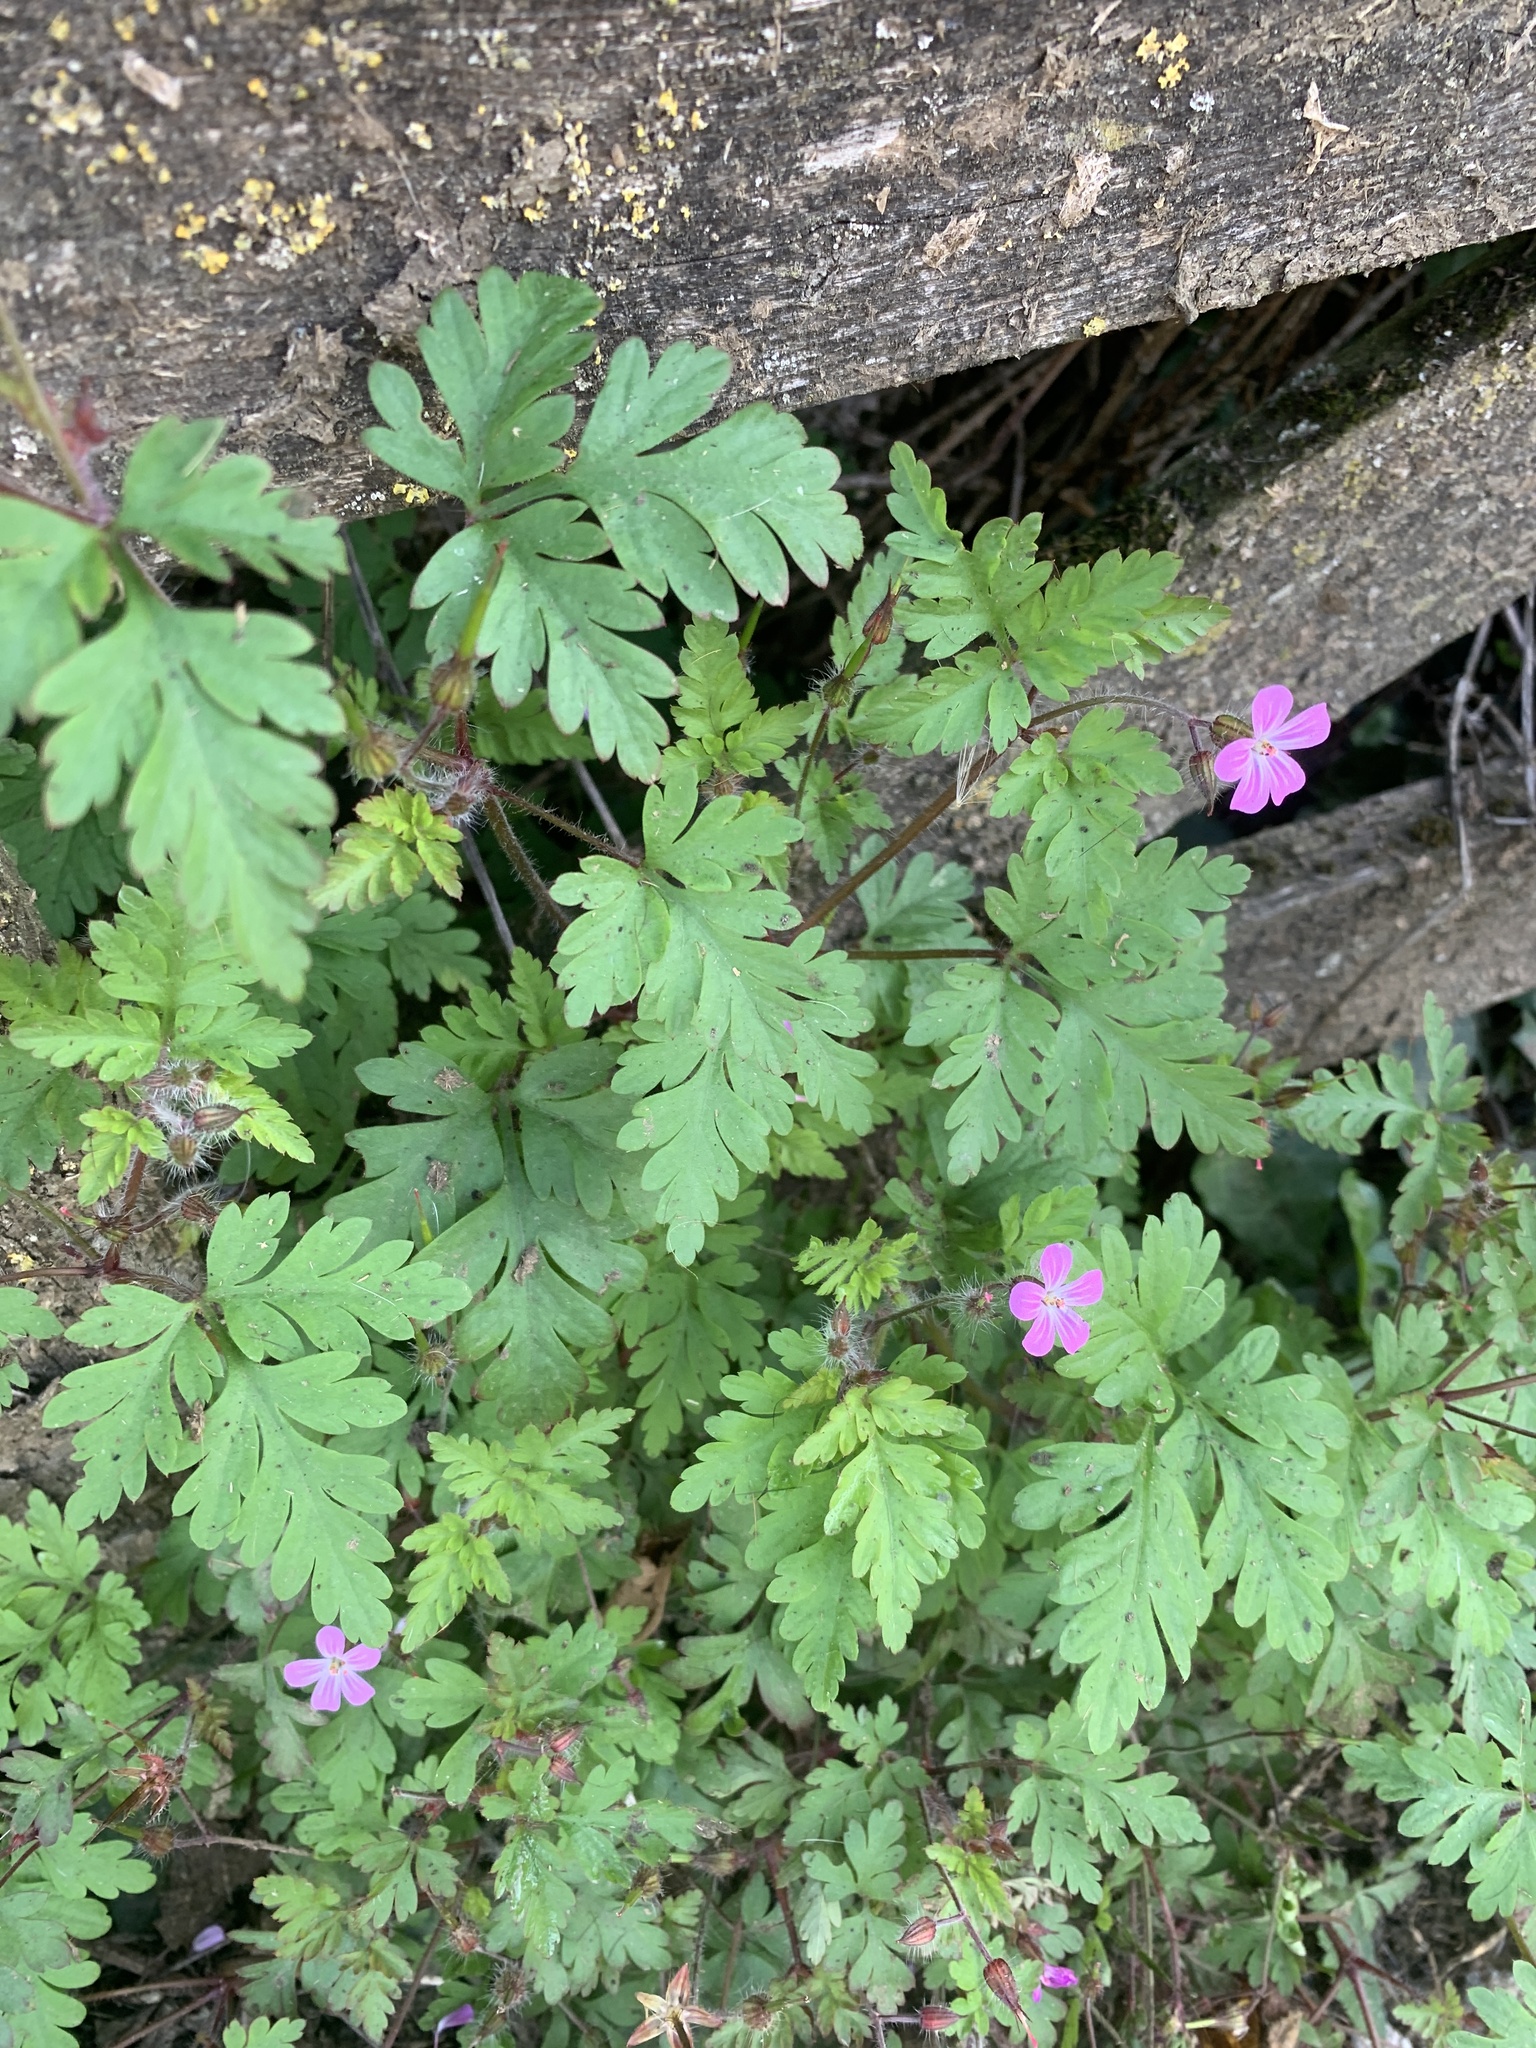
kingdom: Plantae
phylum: Tracheophyta
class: Magnoliopsida
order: Geraniales
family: Geraniaceae
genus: Geranium
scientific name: Geranium robertianum
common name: Herb-robert
